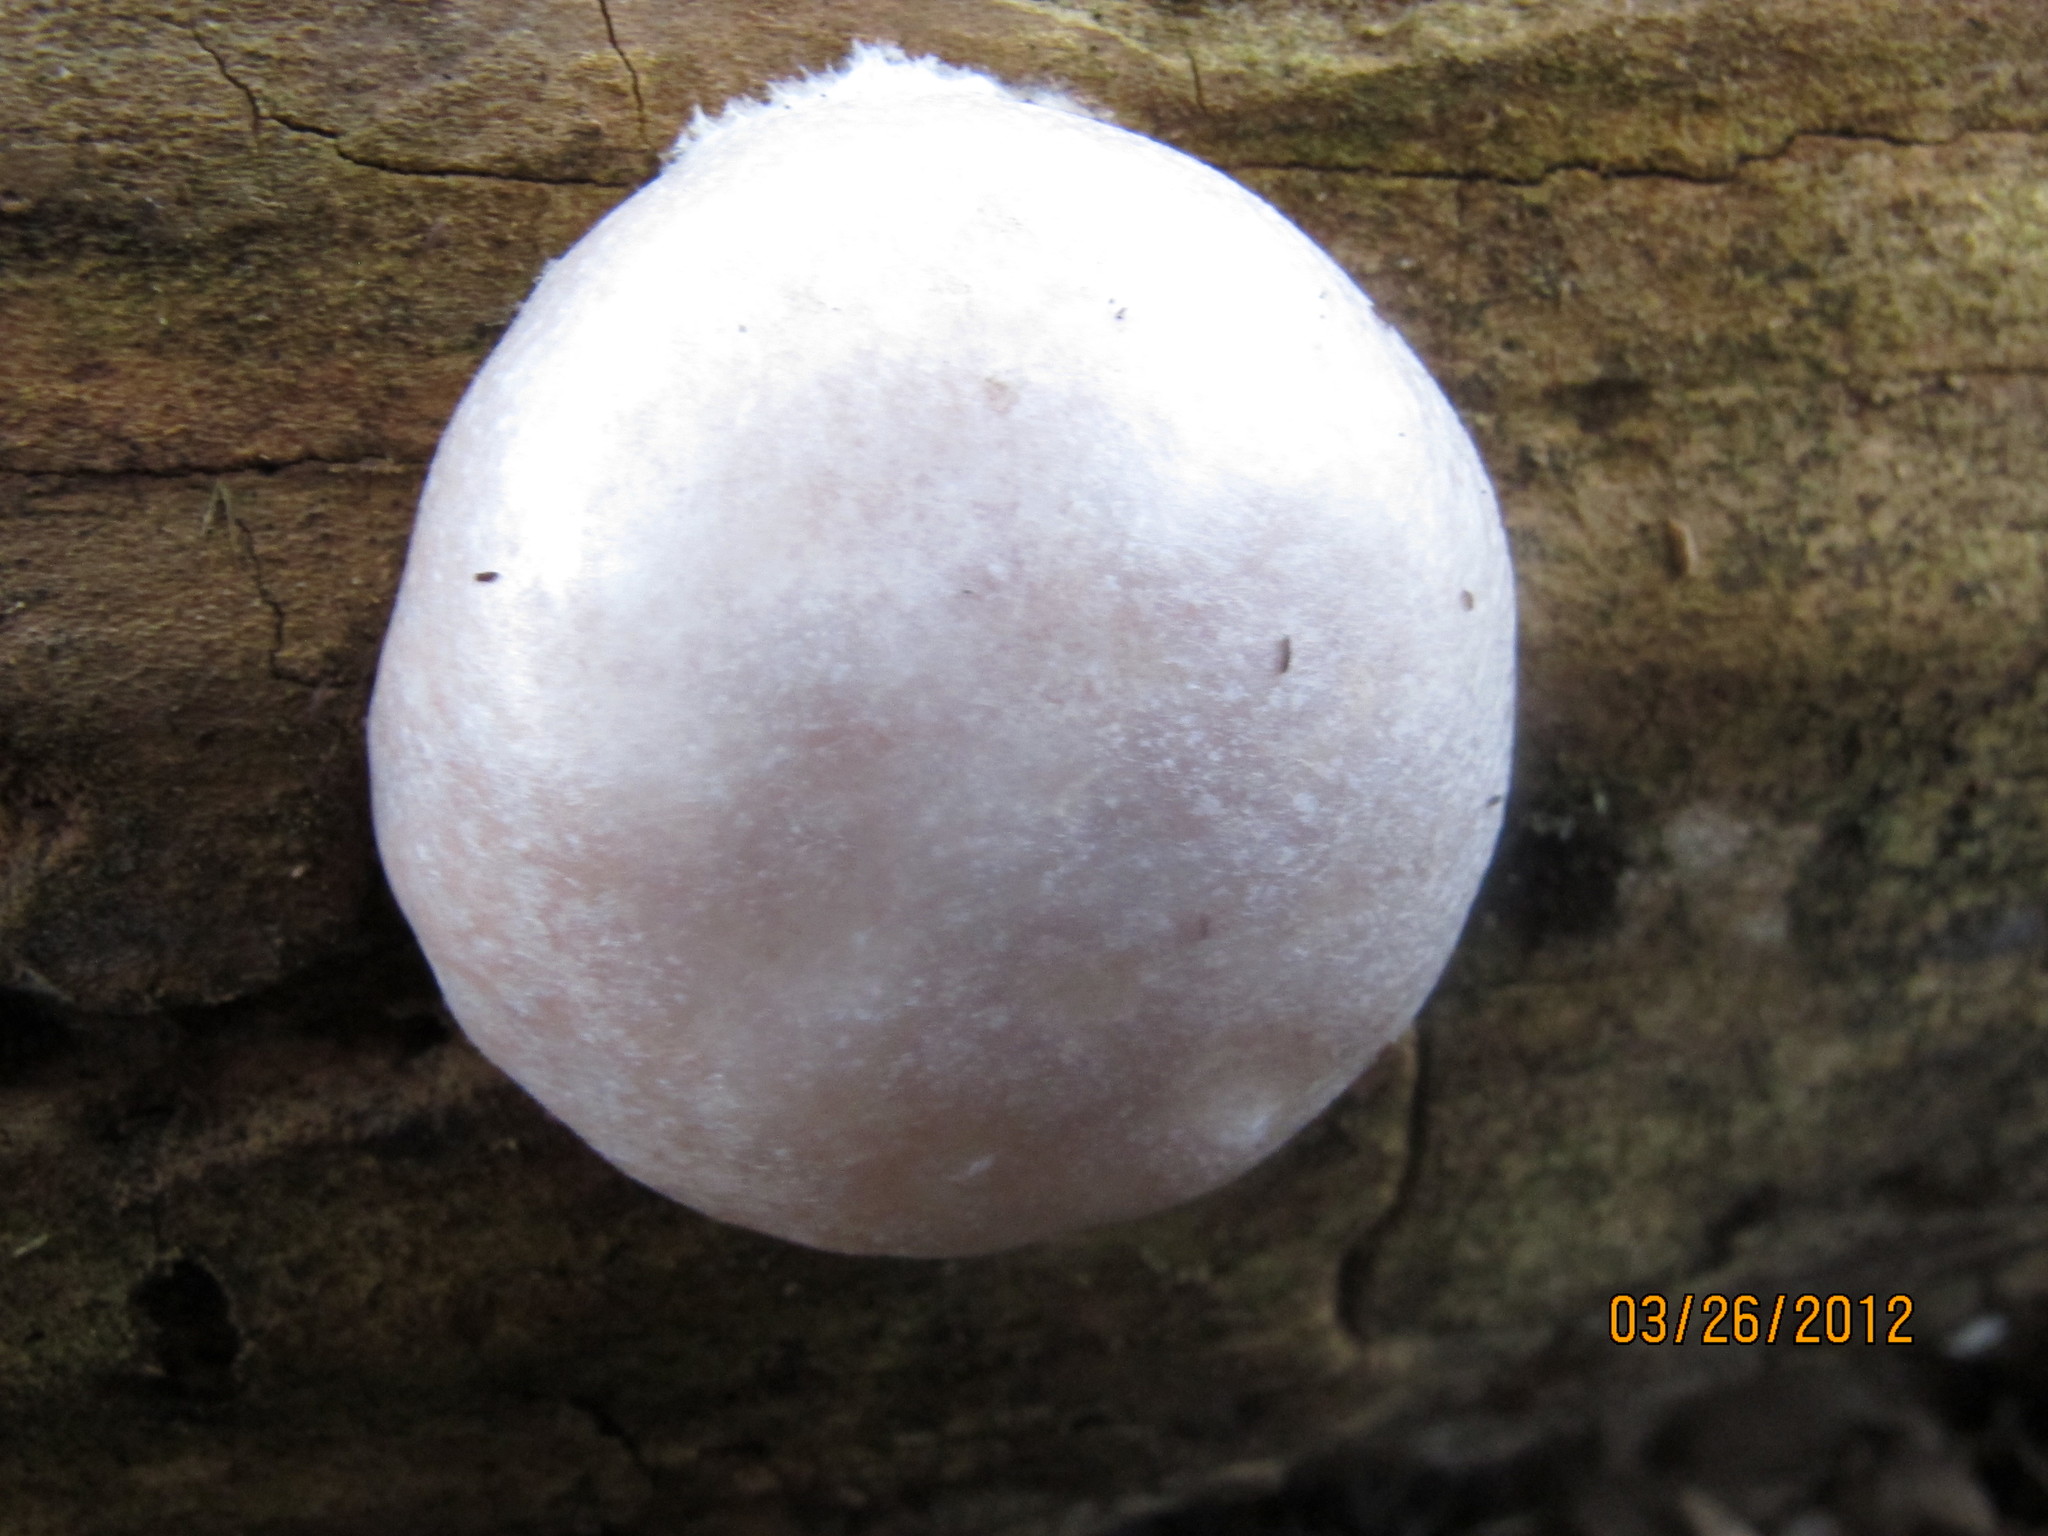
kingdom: Protozoa
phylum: Mycetozoa
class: Myxomycetes
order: Cribrariales
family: Tubiferaceae
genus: Reticularia
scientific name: Reticularia lycoperdon
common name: False puffball
